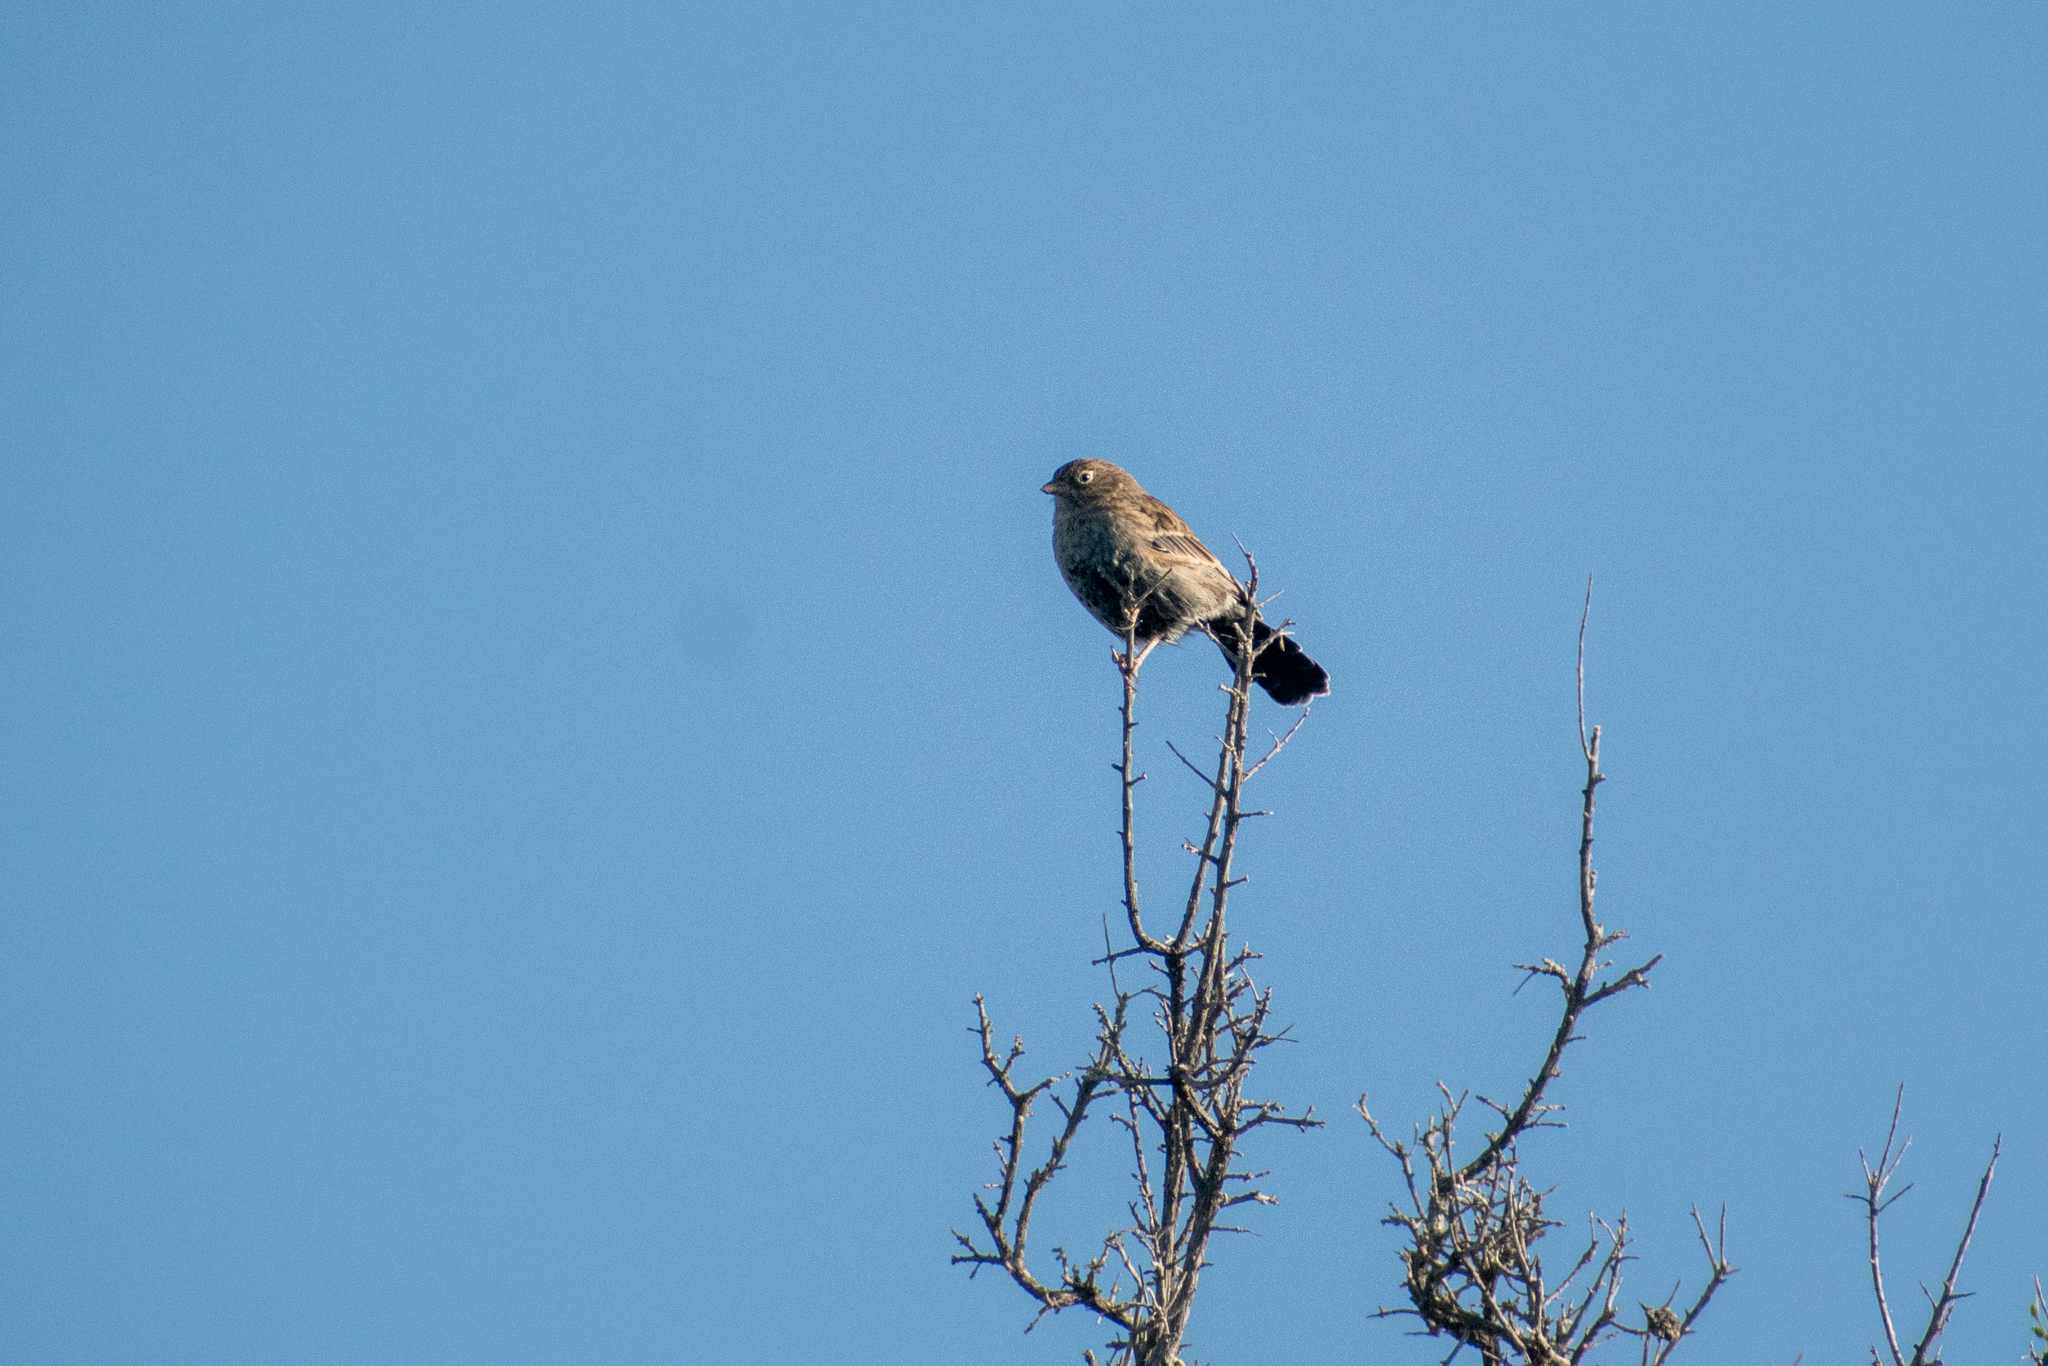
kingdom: Animalia
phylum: Chordata
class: Aves
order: Passeriformes
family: Thraupidae
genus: Porphyrospiza
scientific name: Porphyrospiza carbonaria
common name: Carbon finch
